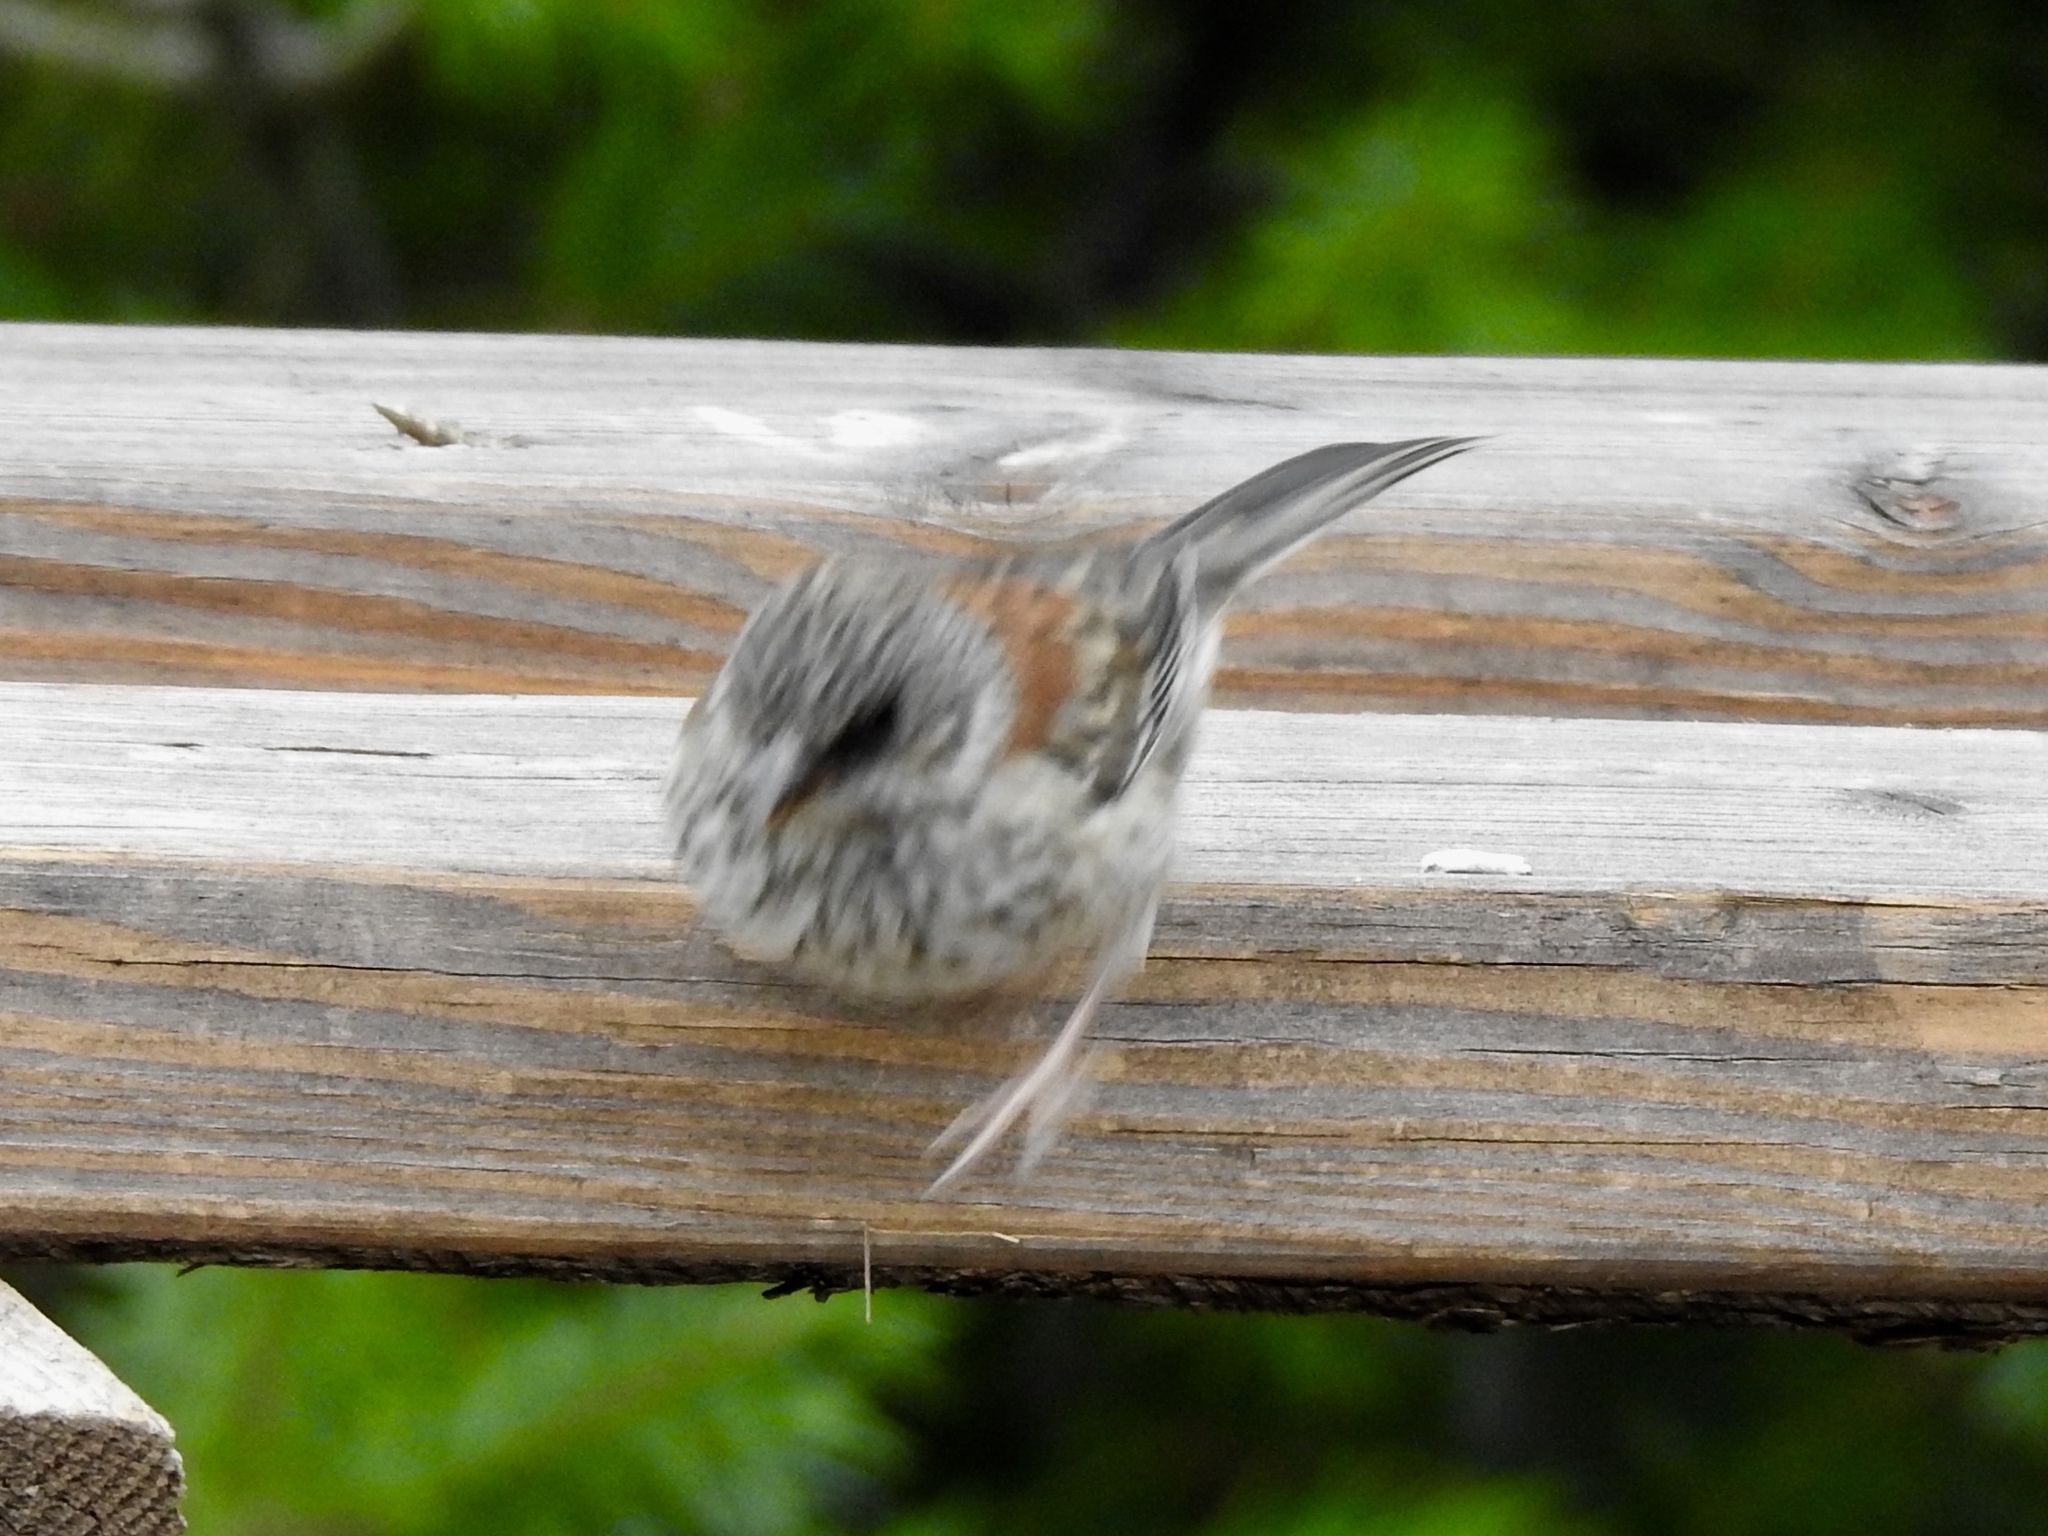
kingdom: Animalia
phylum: Chordata
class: Aves
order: Passeriformes
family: Passerellidae
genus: Junco
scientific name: Junco hyemalis
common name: Dark-eyed junco
